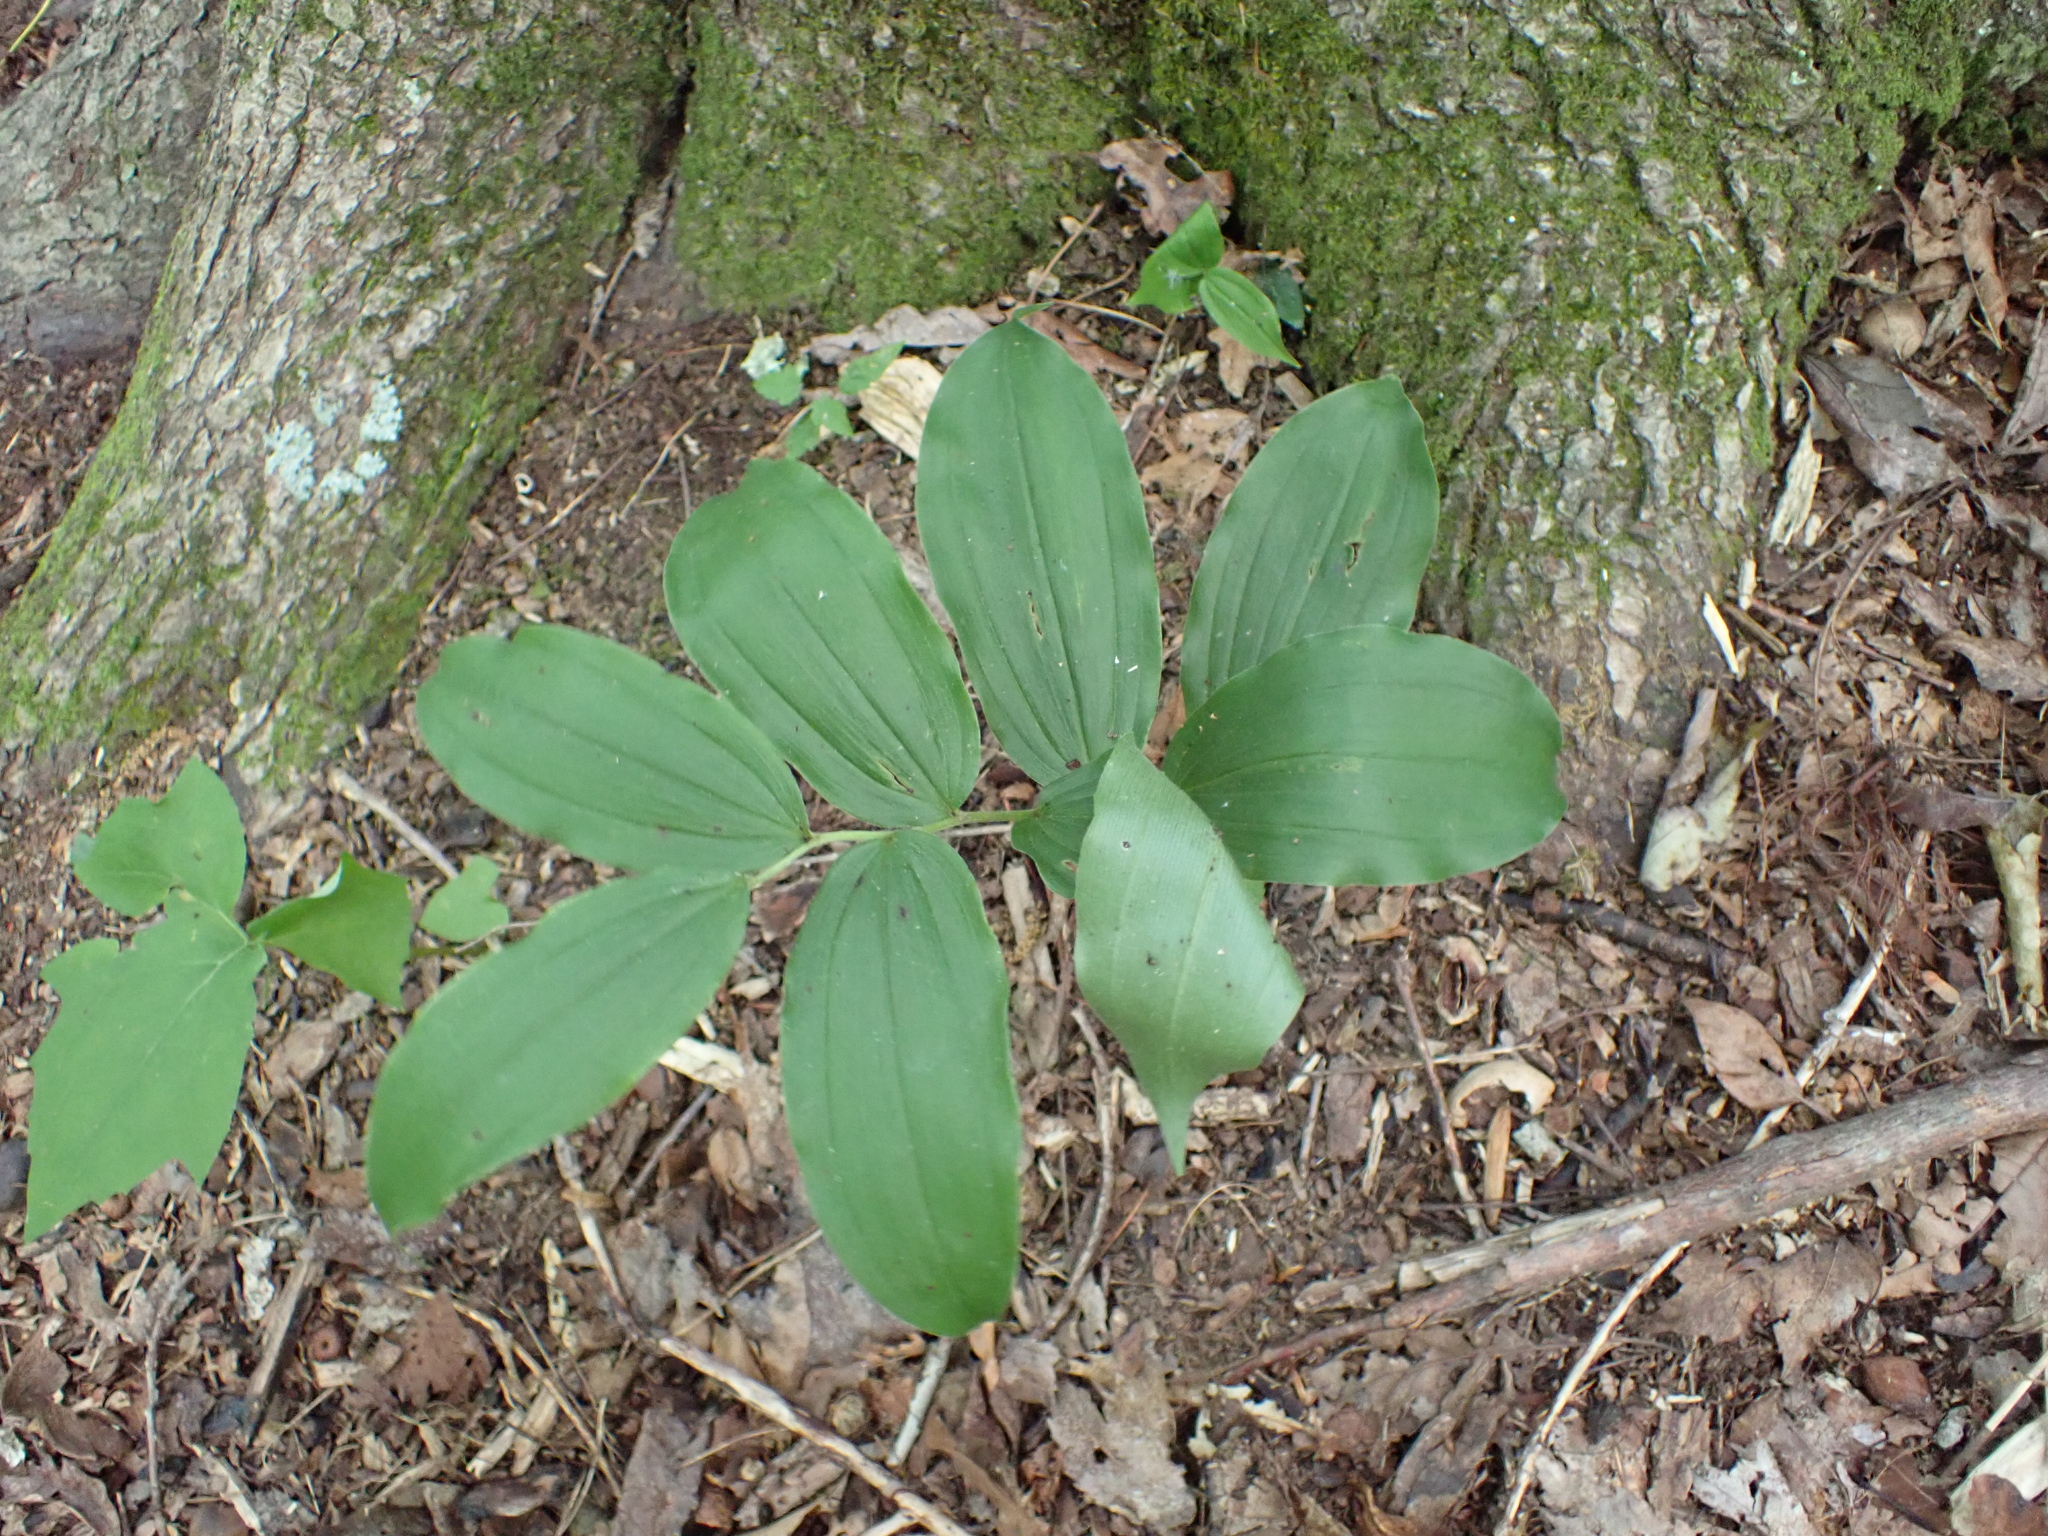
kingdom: Plantae
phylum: Tracheophyta
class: Liliopsida
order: Asparagales
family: Asparagaceae
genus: Maianthemum
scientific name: Maianthemum racemosum
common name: False spikenard
